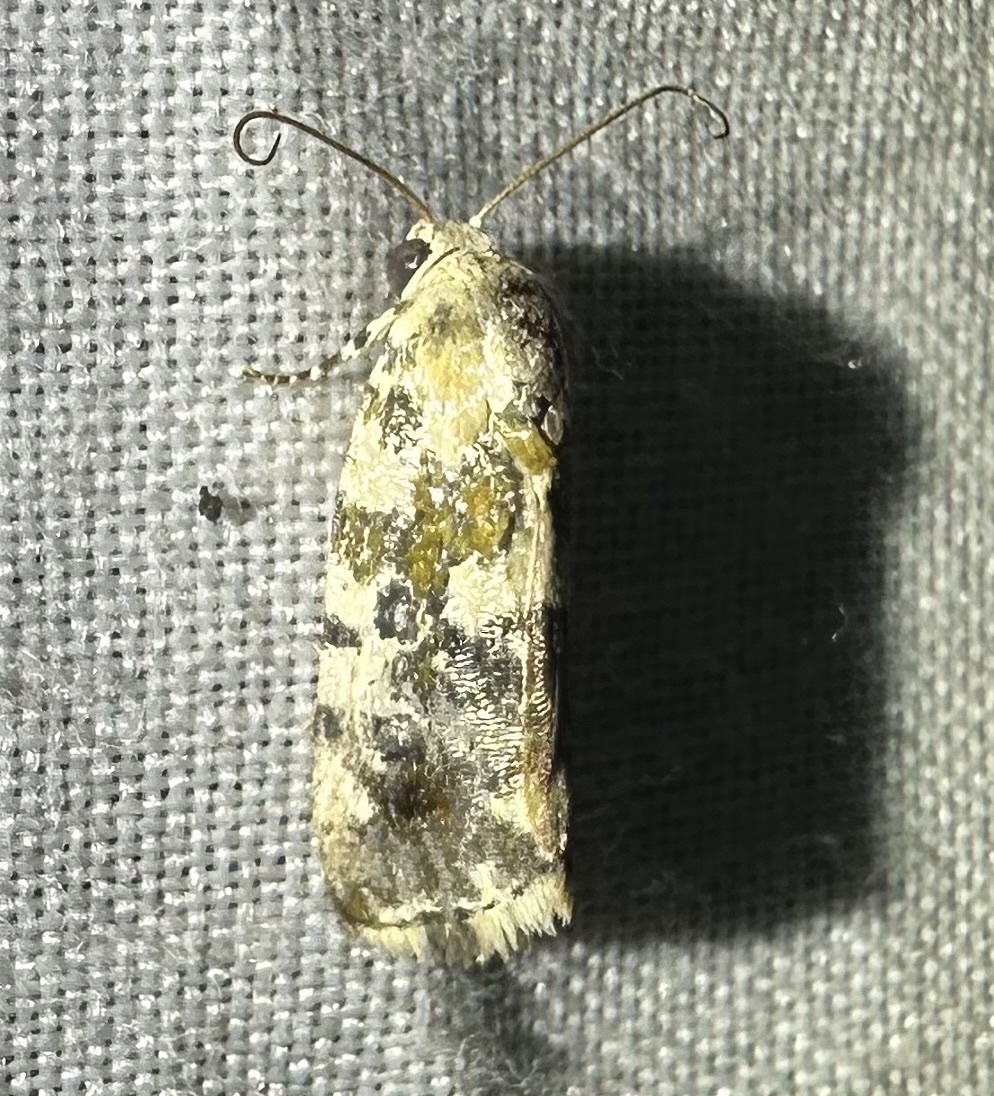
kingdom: Animalia
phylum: Arthropoda
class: Insecta
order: Lepidoptera
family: Noctuidae
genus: Acontia
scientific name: Acontia zelleri
